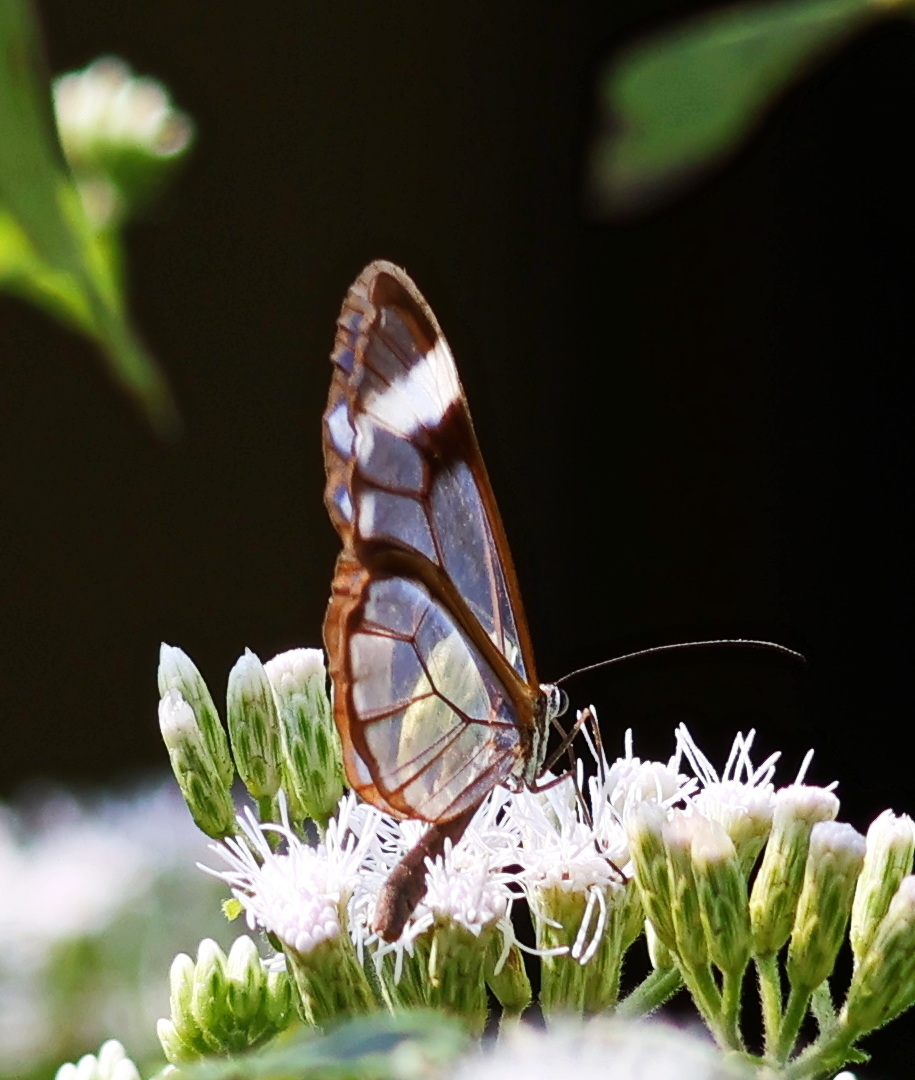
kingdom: Animalia
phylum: Arthropoda
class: Insecta
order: Lepidoptera
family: Nymphalidae
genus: Greta
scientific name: Greta morgane
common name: Thick-tipped greta
